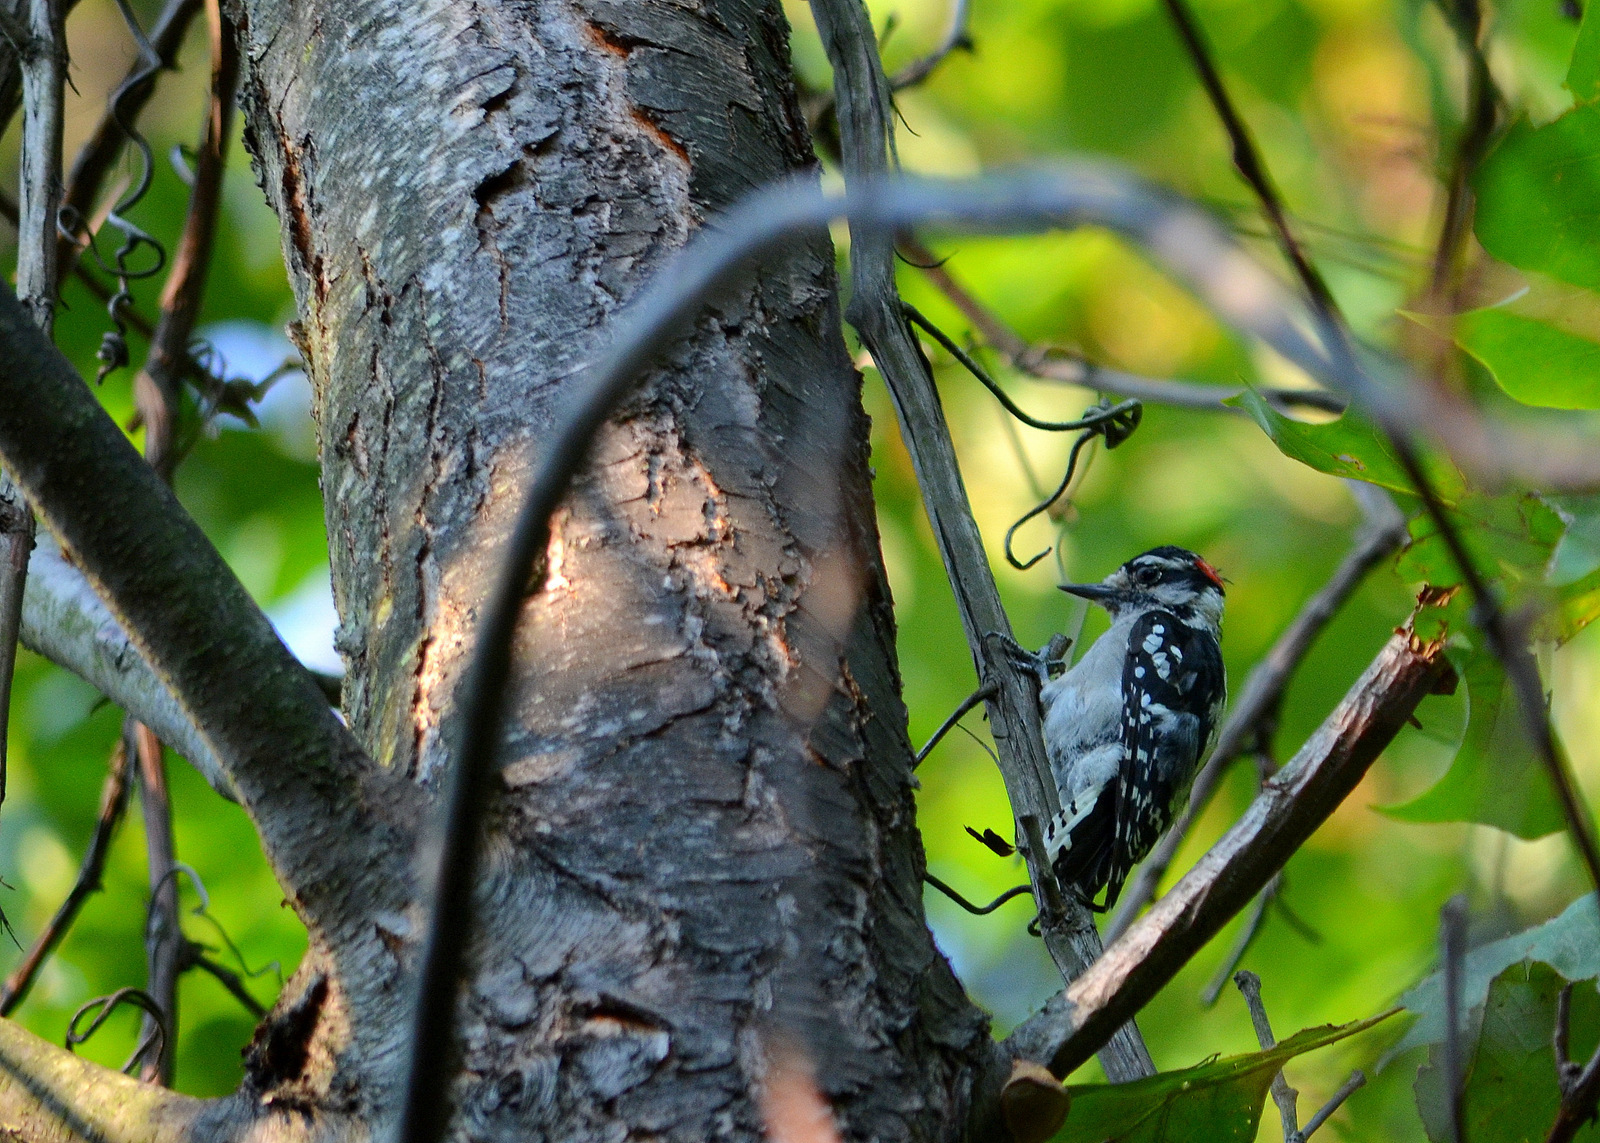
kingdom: Animalia
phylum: Chordata
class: Aves
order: Piciformes
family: Picidae
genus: Dryobates
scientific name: Dryobates pubescens
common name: Downy woodpecker
